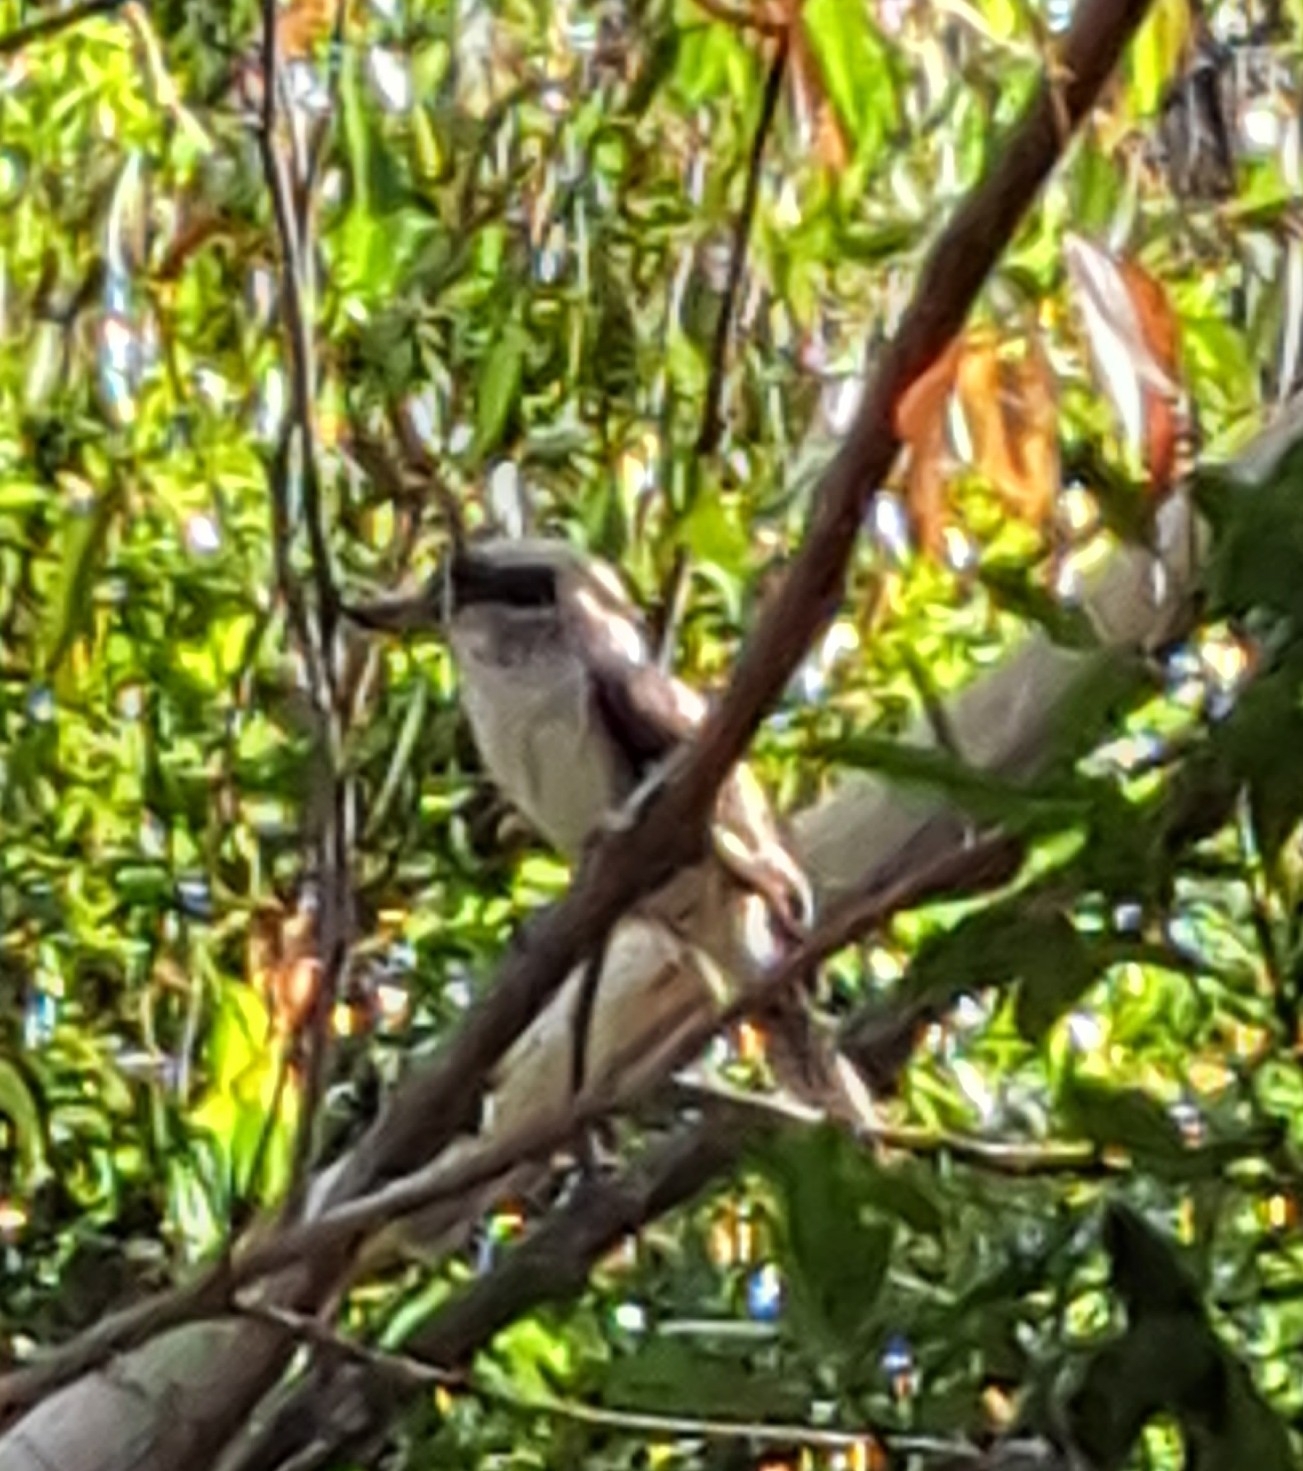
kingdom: Animalia
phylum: Chordata
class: Aves
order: Coraciiformes
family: Alcedinidae
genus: Dacelo
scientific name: Dacelo novaeguineae
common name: Laughing kookaburra
